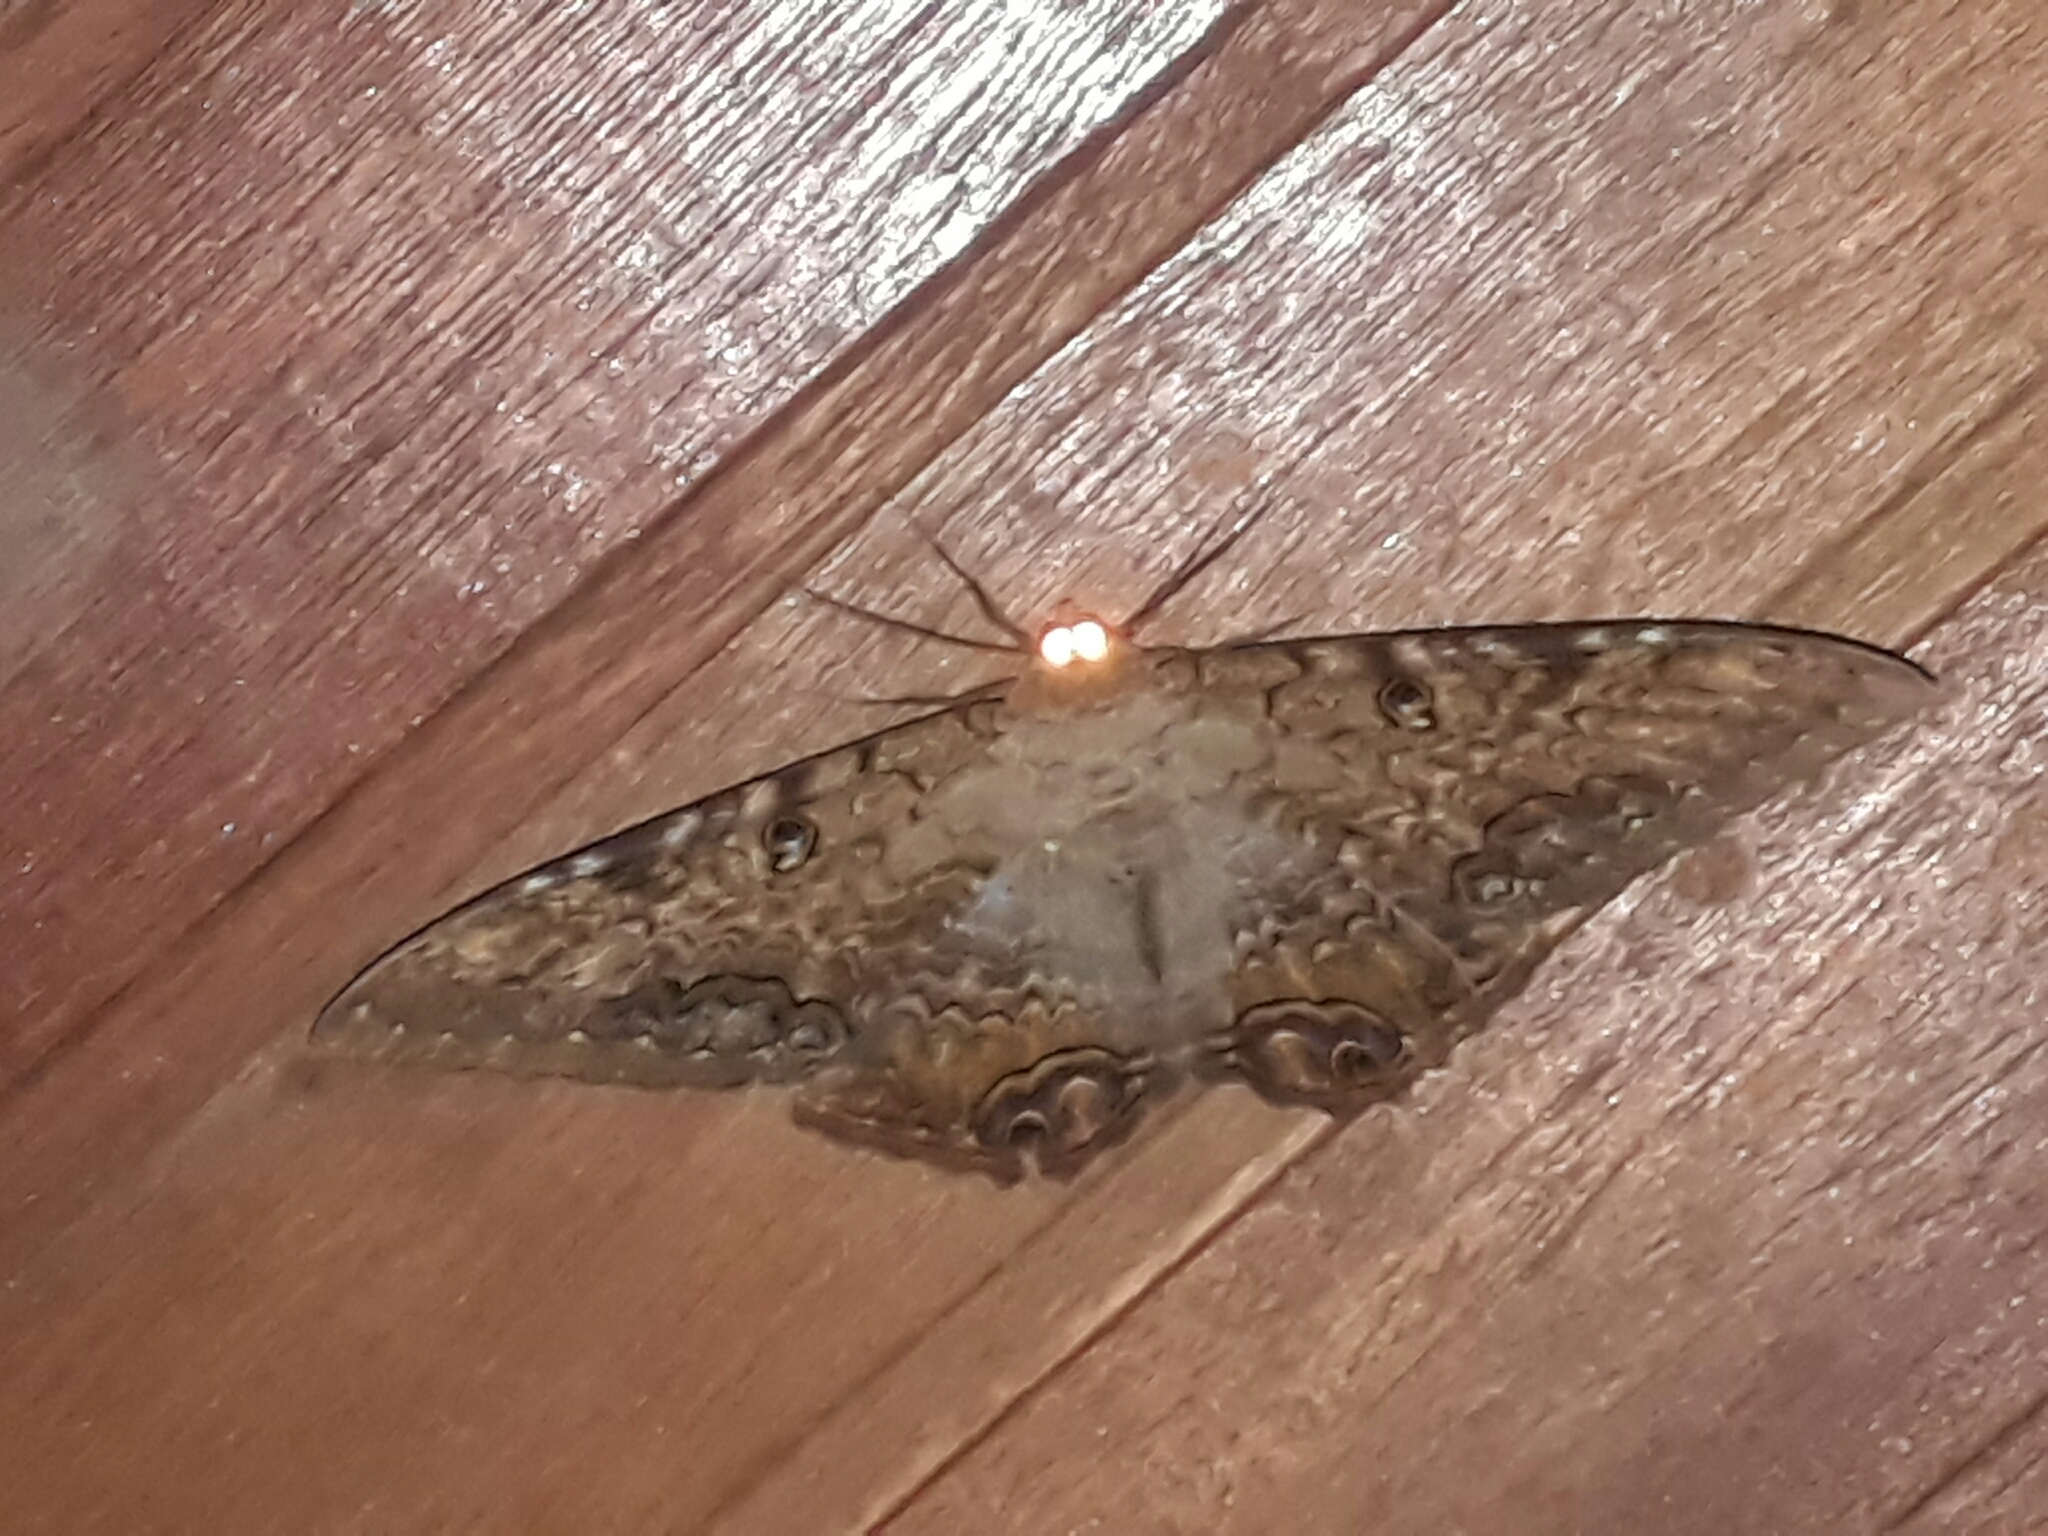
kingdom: Animalia
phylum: Arthropoda
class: Insecta
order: Lepidoptera
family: Erebidae
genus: Ascalapha
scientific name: Ascalapha odorata
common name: Black witch
